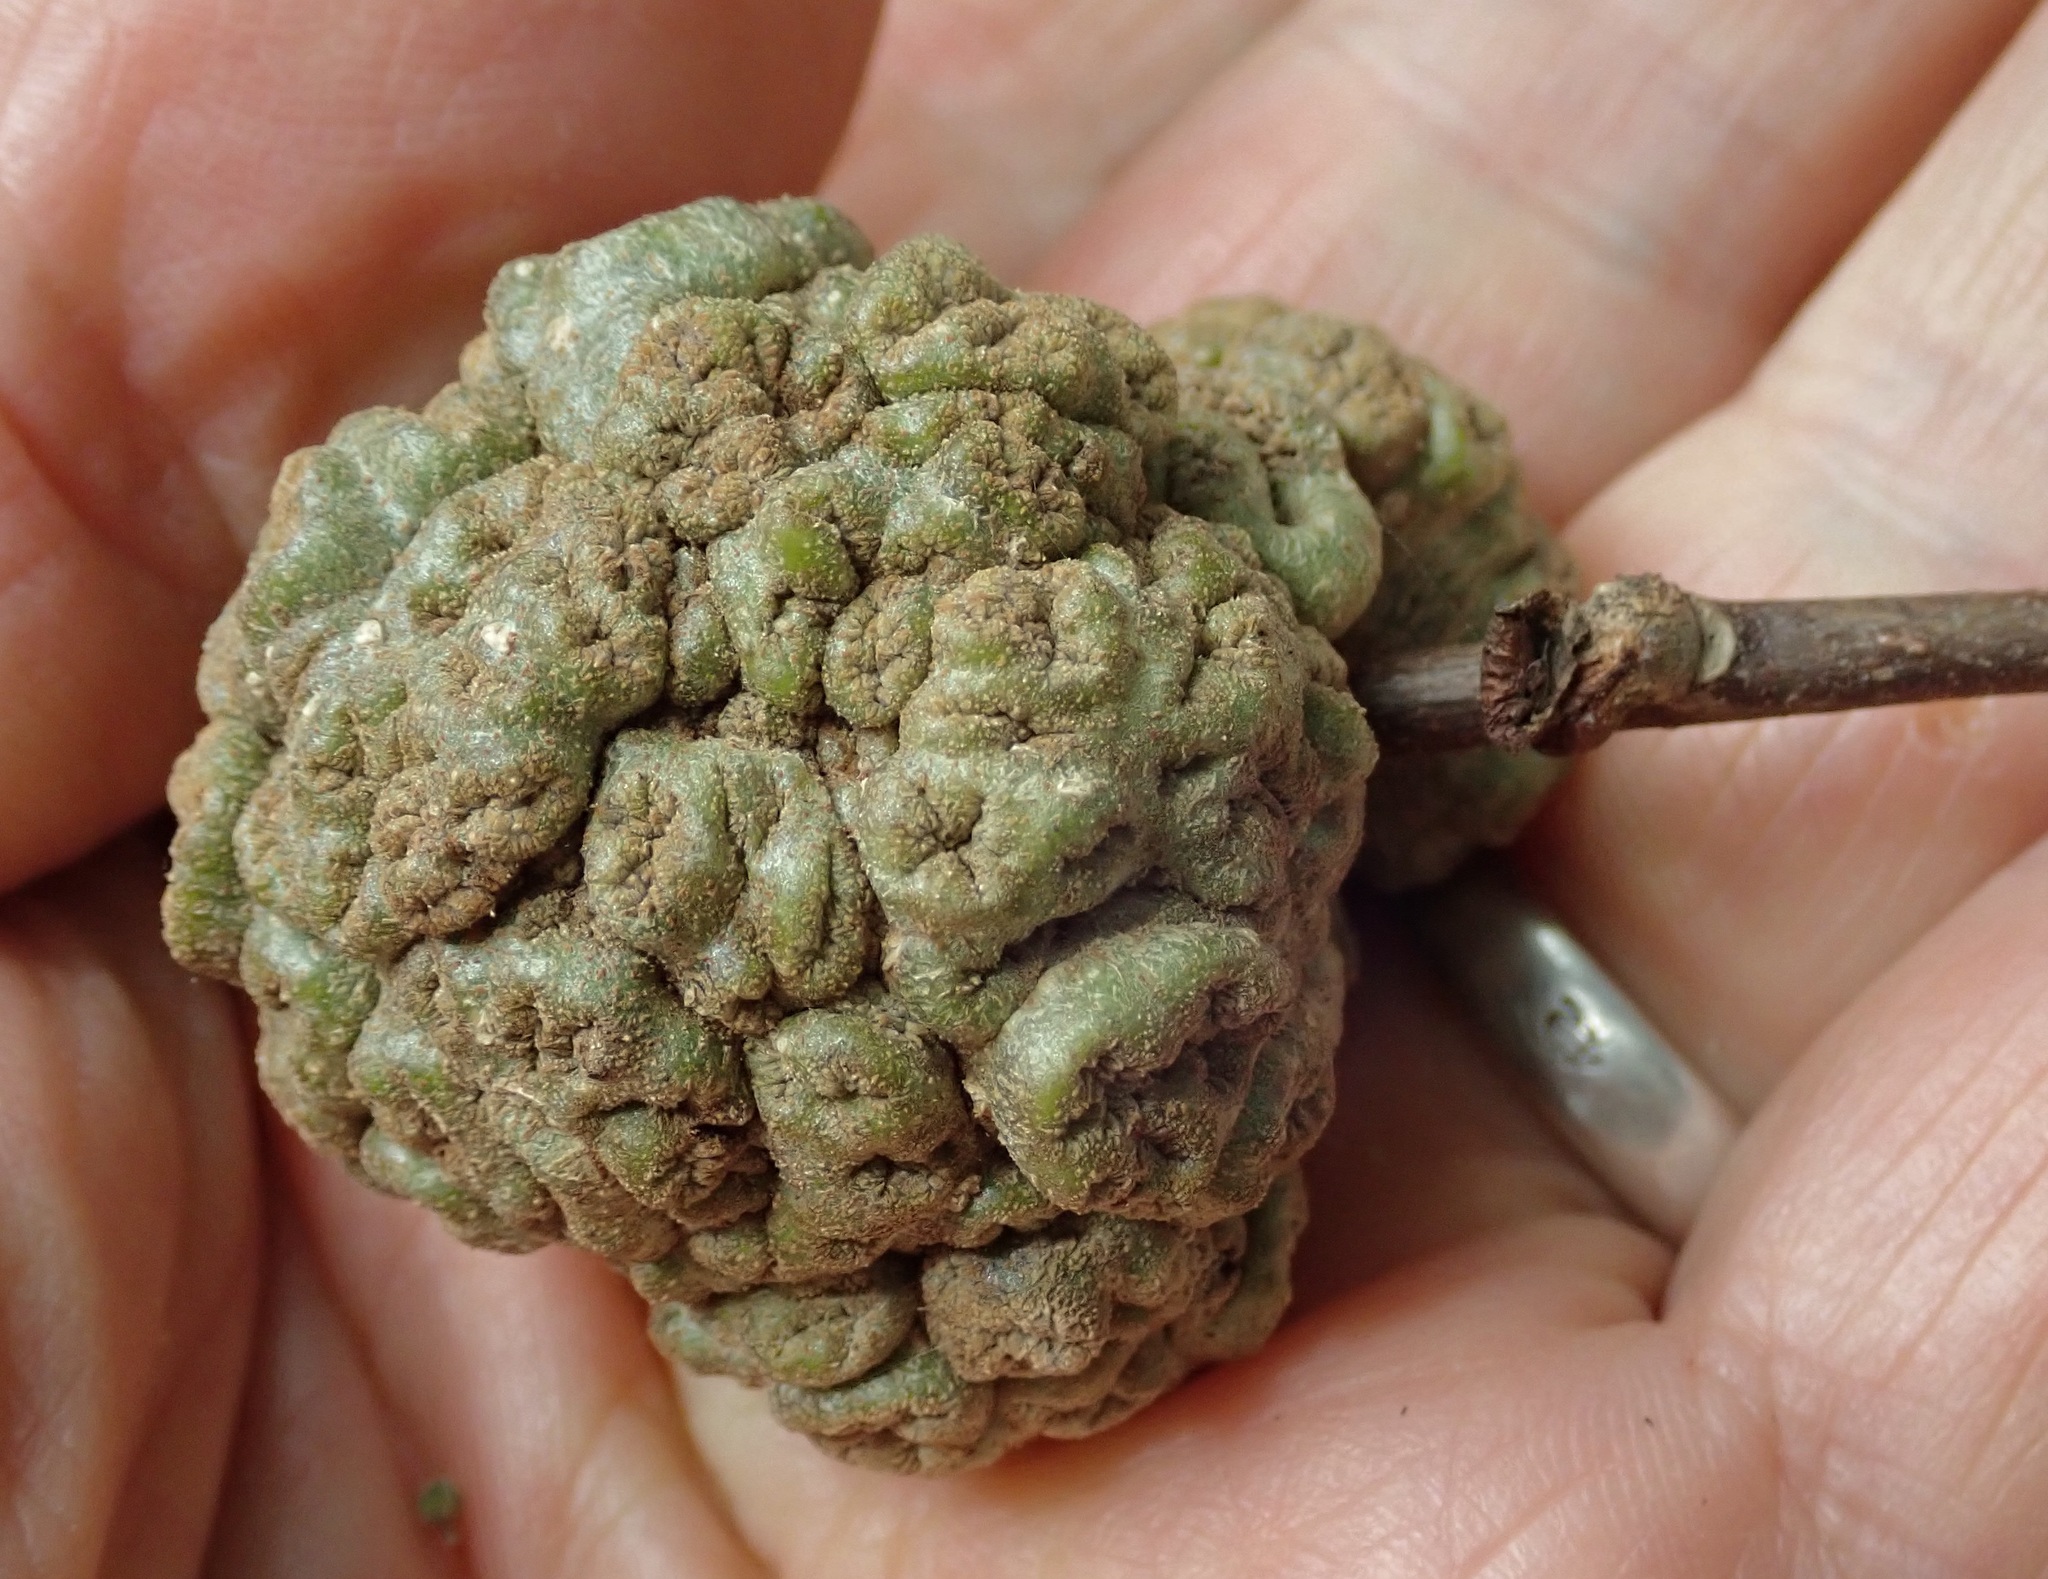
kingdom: Animalia
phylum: Arthropoda
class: Arachnida
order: Trombidiformes
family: Eriophyidae
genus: Eriophyes
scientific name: Eriophyes hoheriae
